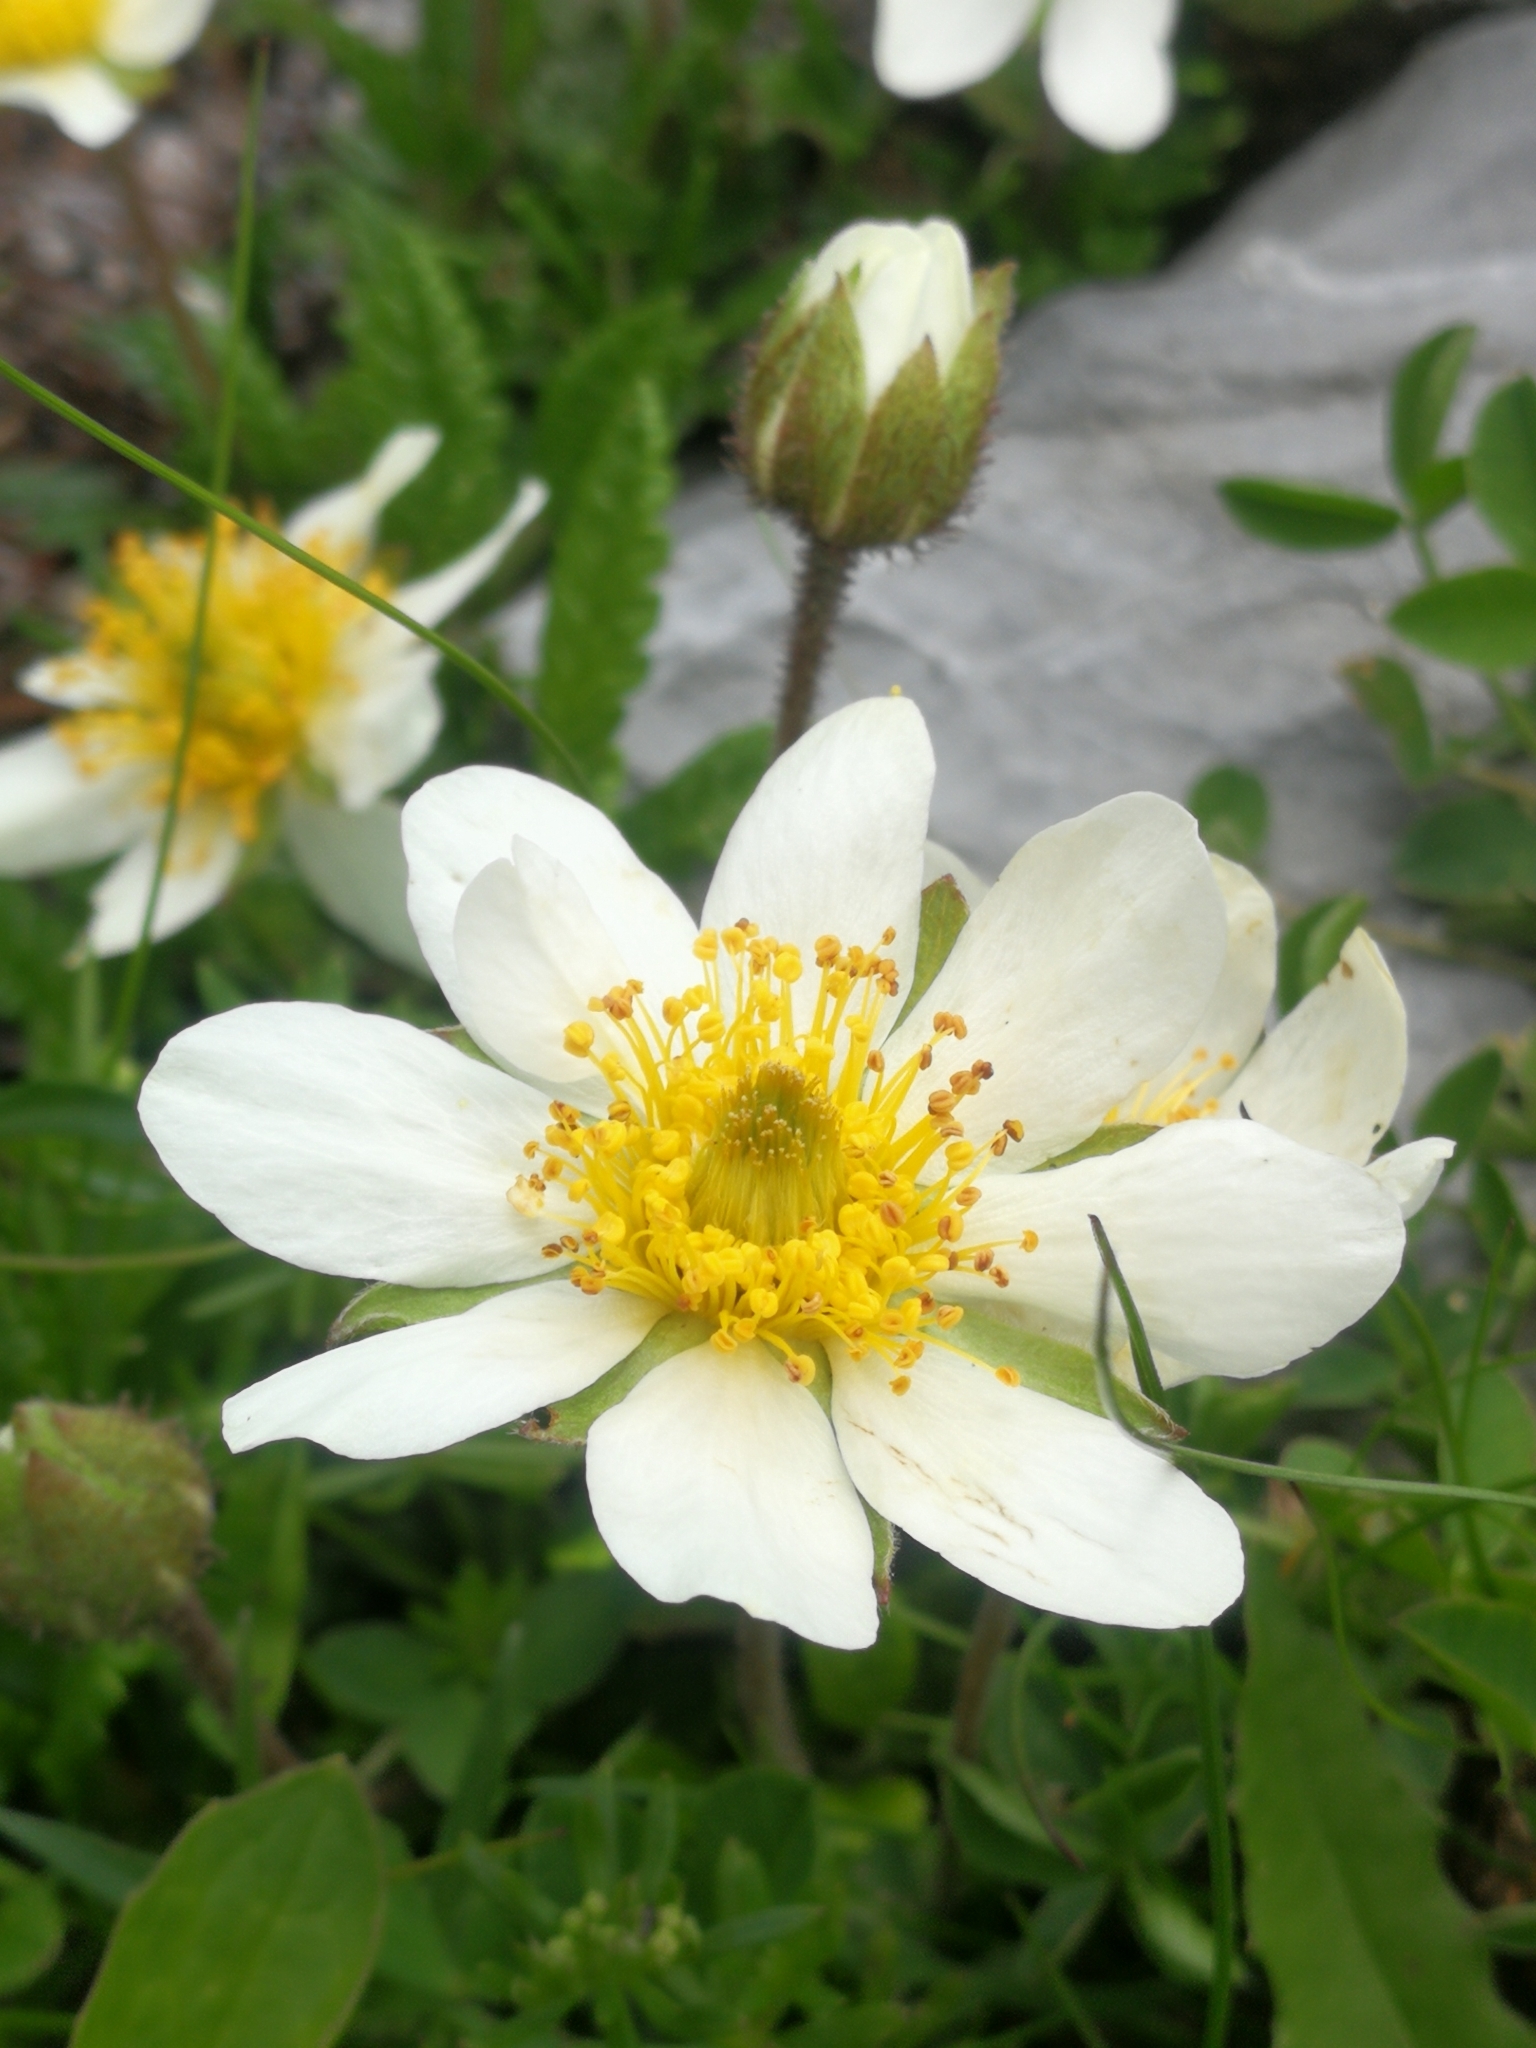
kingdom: Plantae
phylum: Tracheophyta
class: Magnoliopsida
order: Rosales
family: Rosaceae
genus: Dryas
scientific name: Dryas octopetala
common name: Eight-petal mountain-avens
